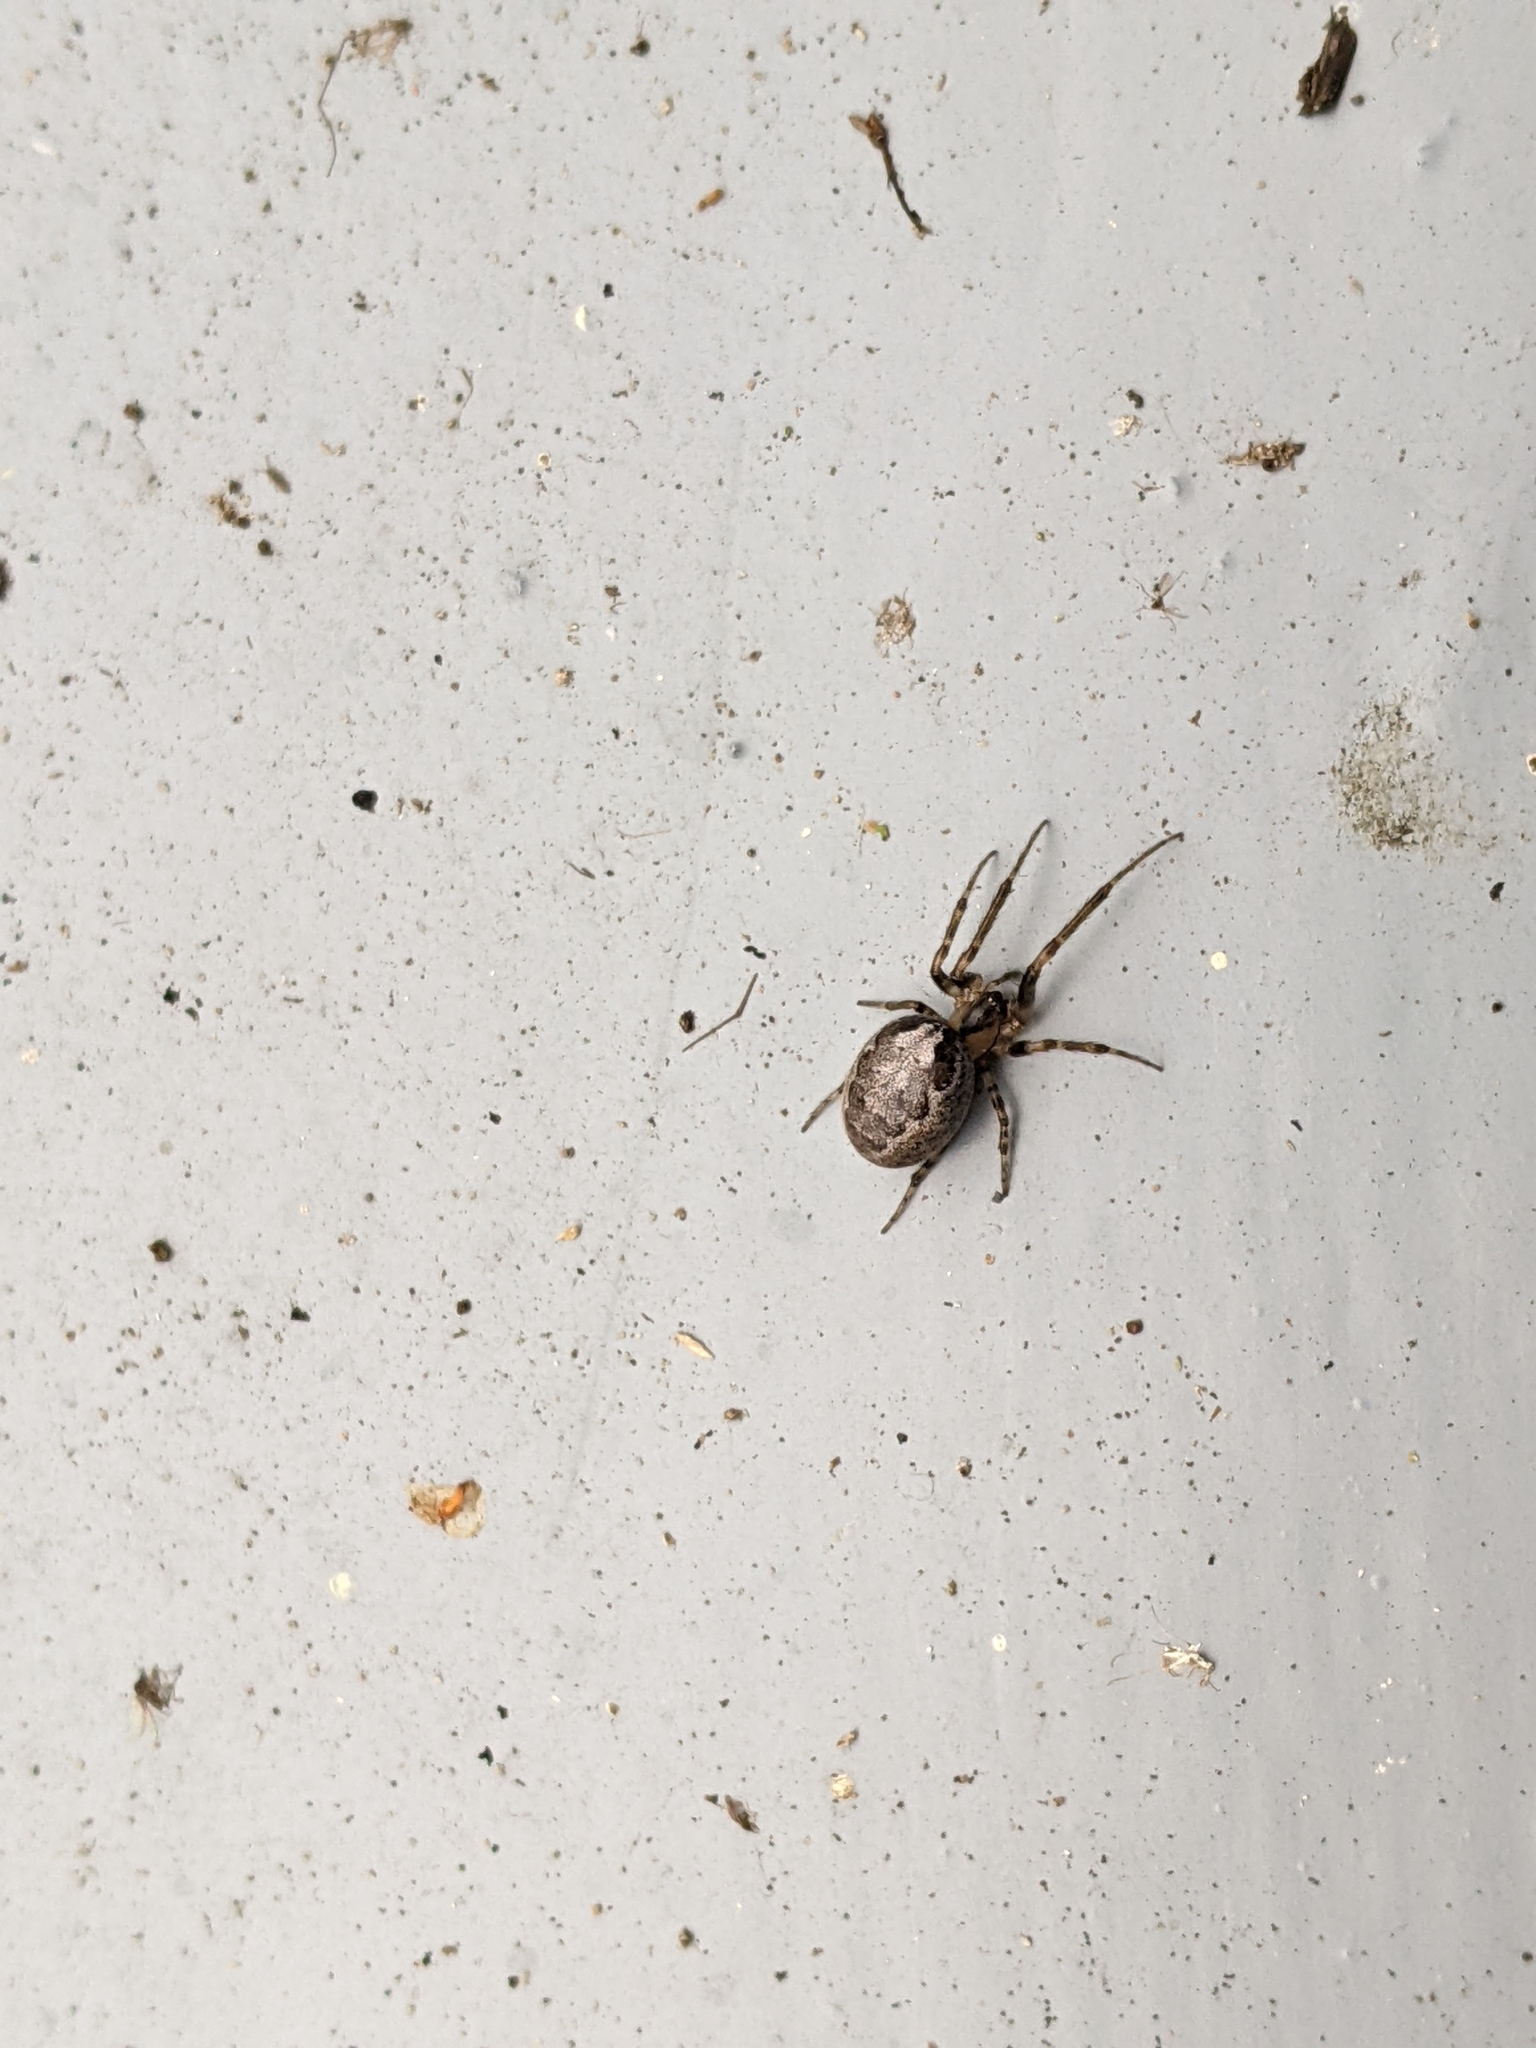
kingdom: Animalia
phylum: Arthropoda
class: Arachnida
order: Araneae
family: Araneidae
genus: Zygiella
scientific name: Zygiella x-notata
